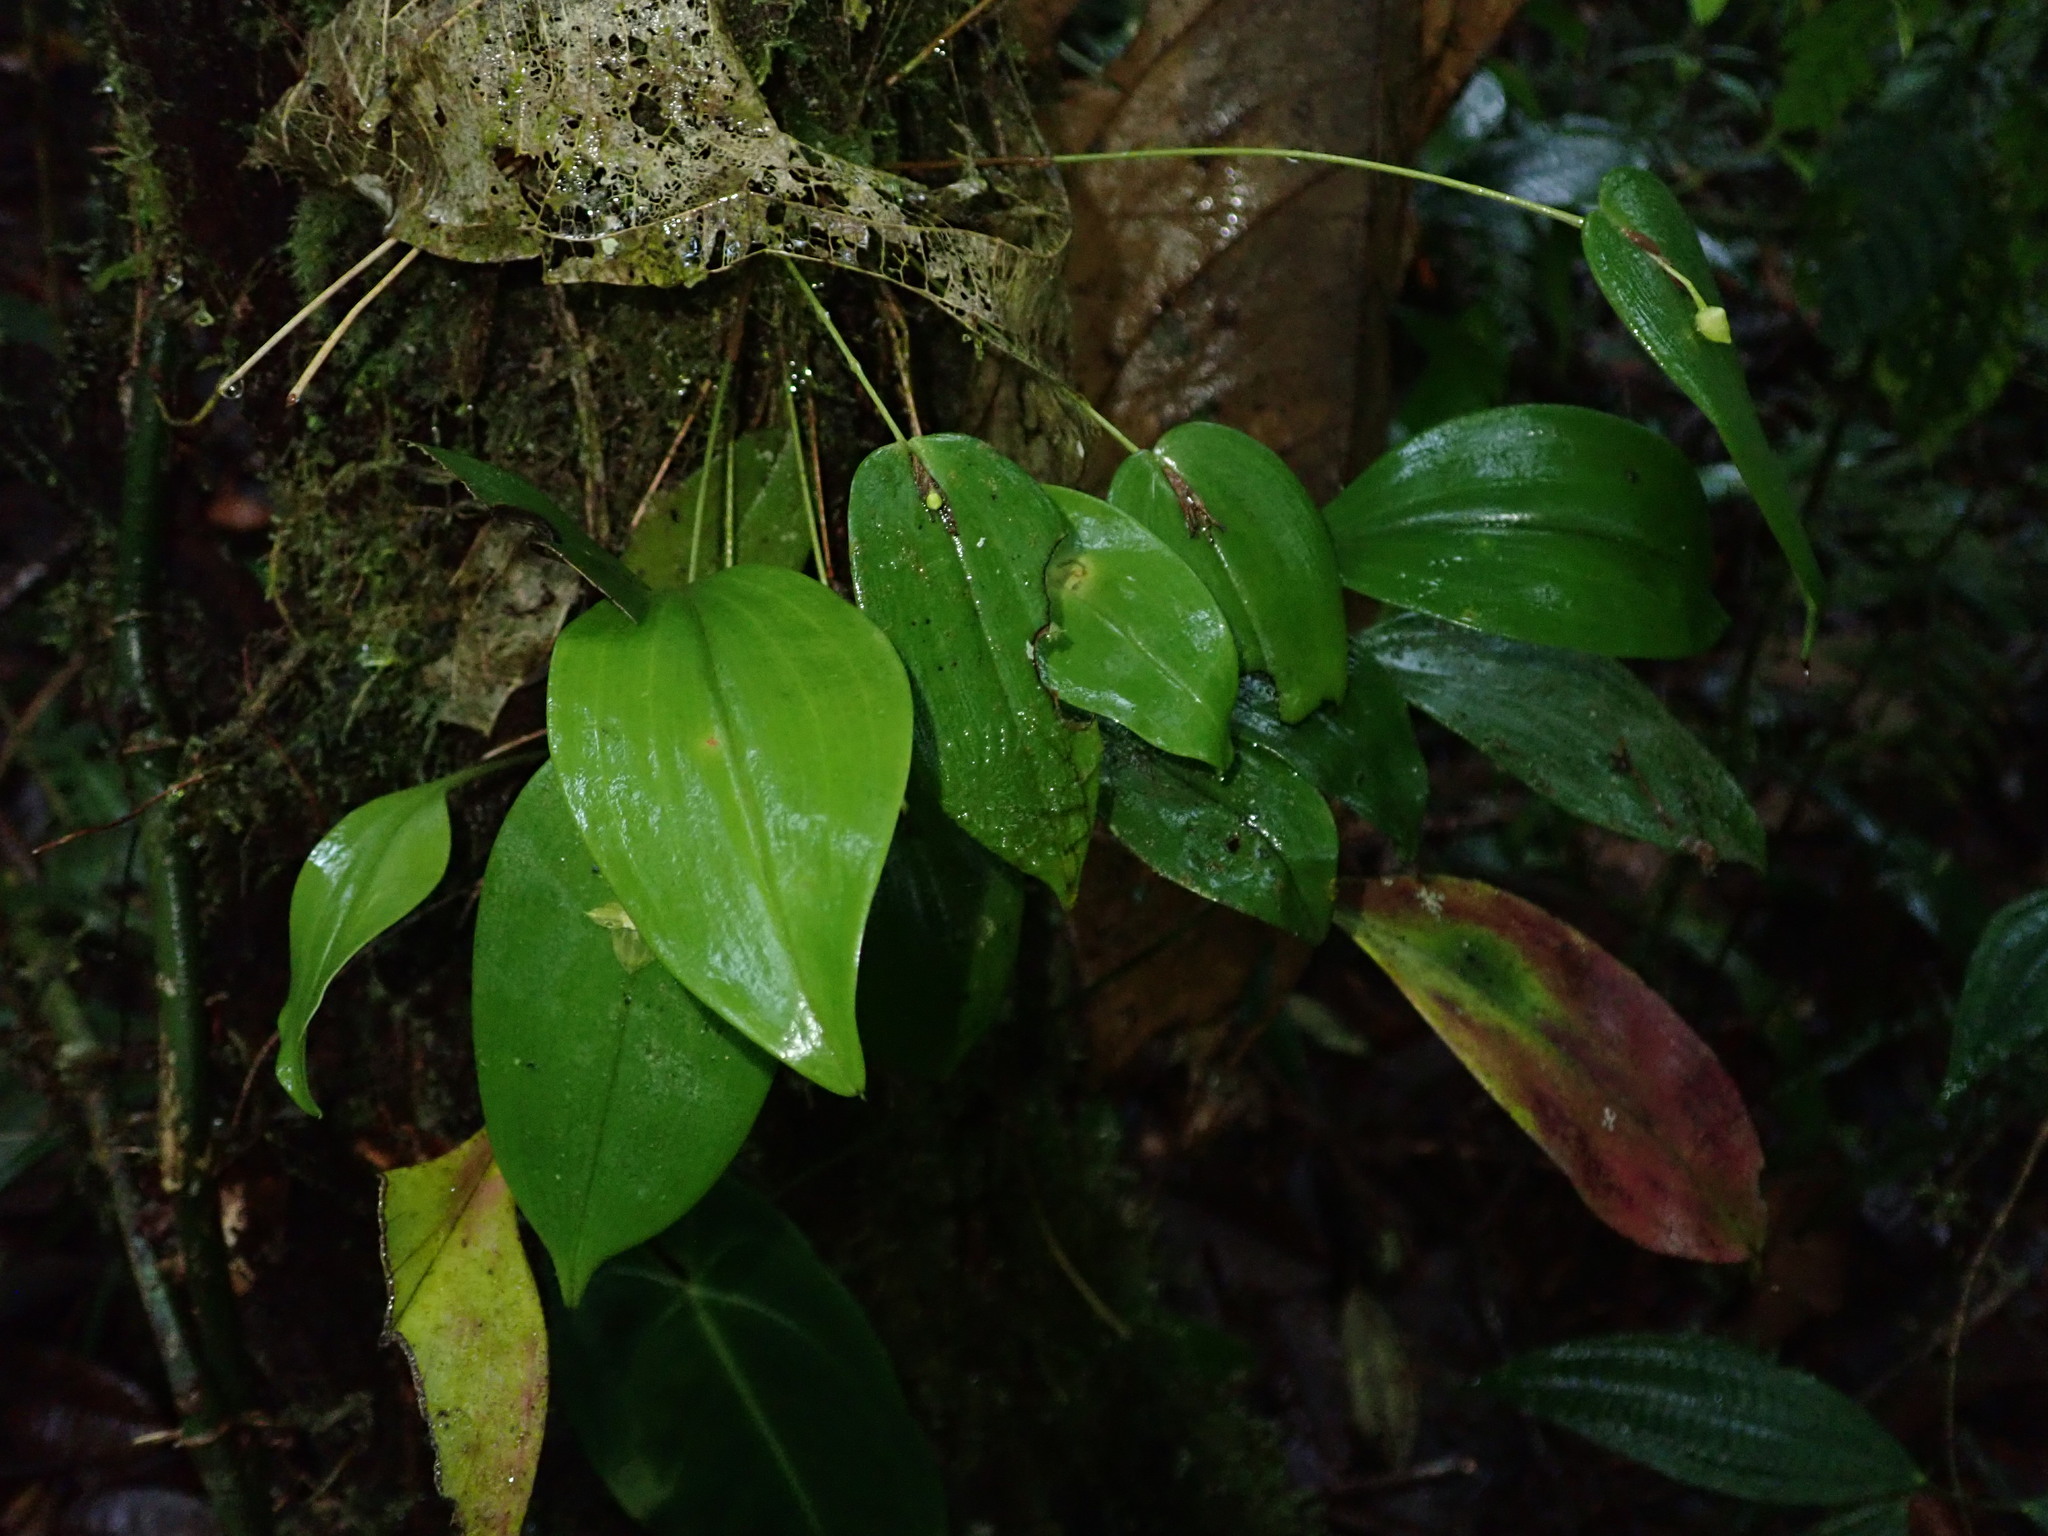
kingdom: Plantae
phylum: Tracheophyta
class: Liliopsida
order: Asparagales
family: Orchidaceae
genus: Pleurothallis
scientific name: Pleurothallis conicostigma
